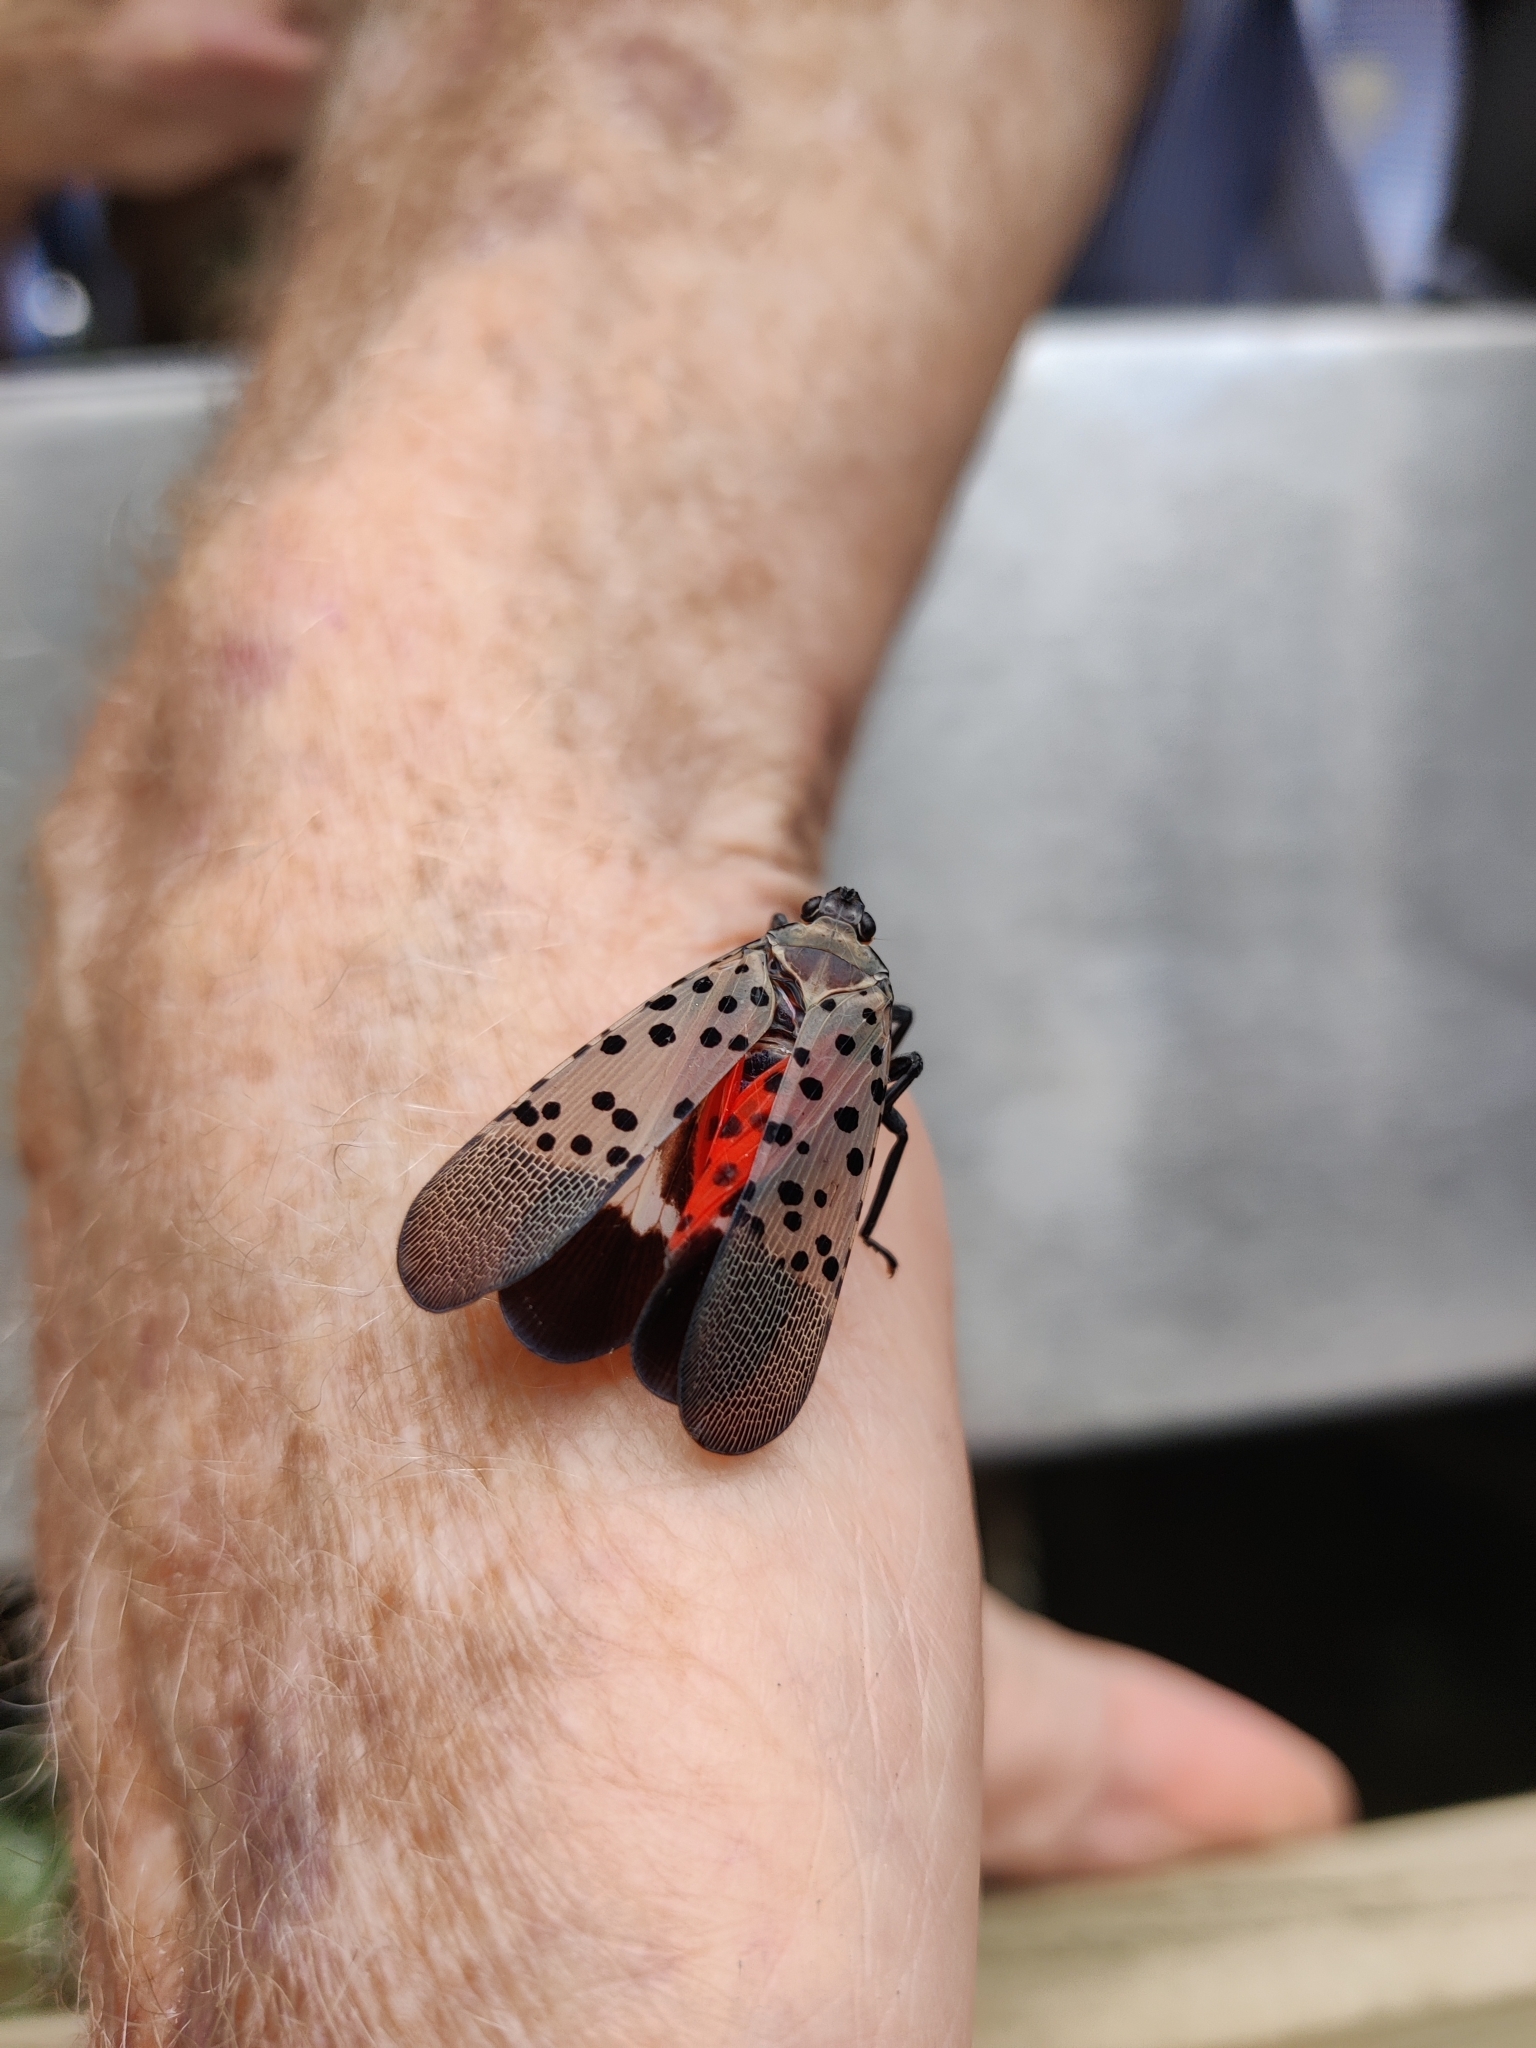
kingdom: Animalia
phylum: Arthropoda
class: Insecta
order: Hemiptera
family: Fulgoridae
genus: Lycorma
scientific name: Lycorma delicatula
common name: Spotted lanternfly
